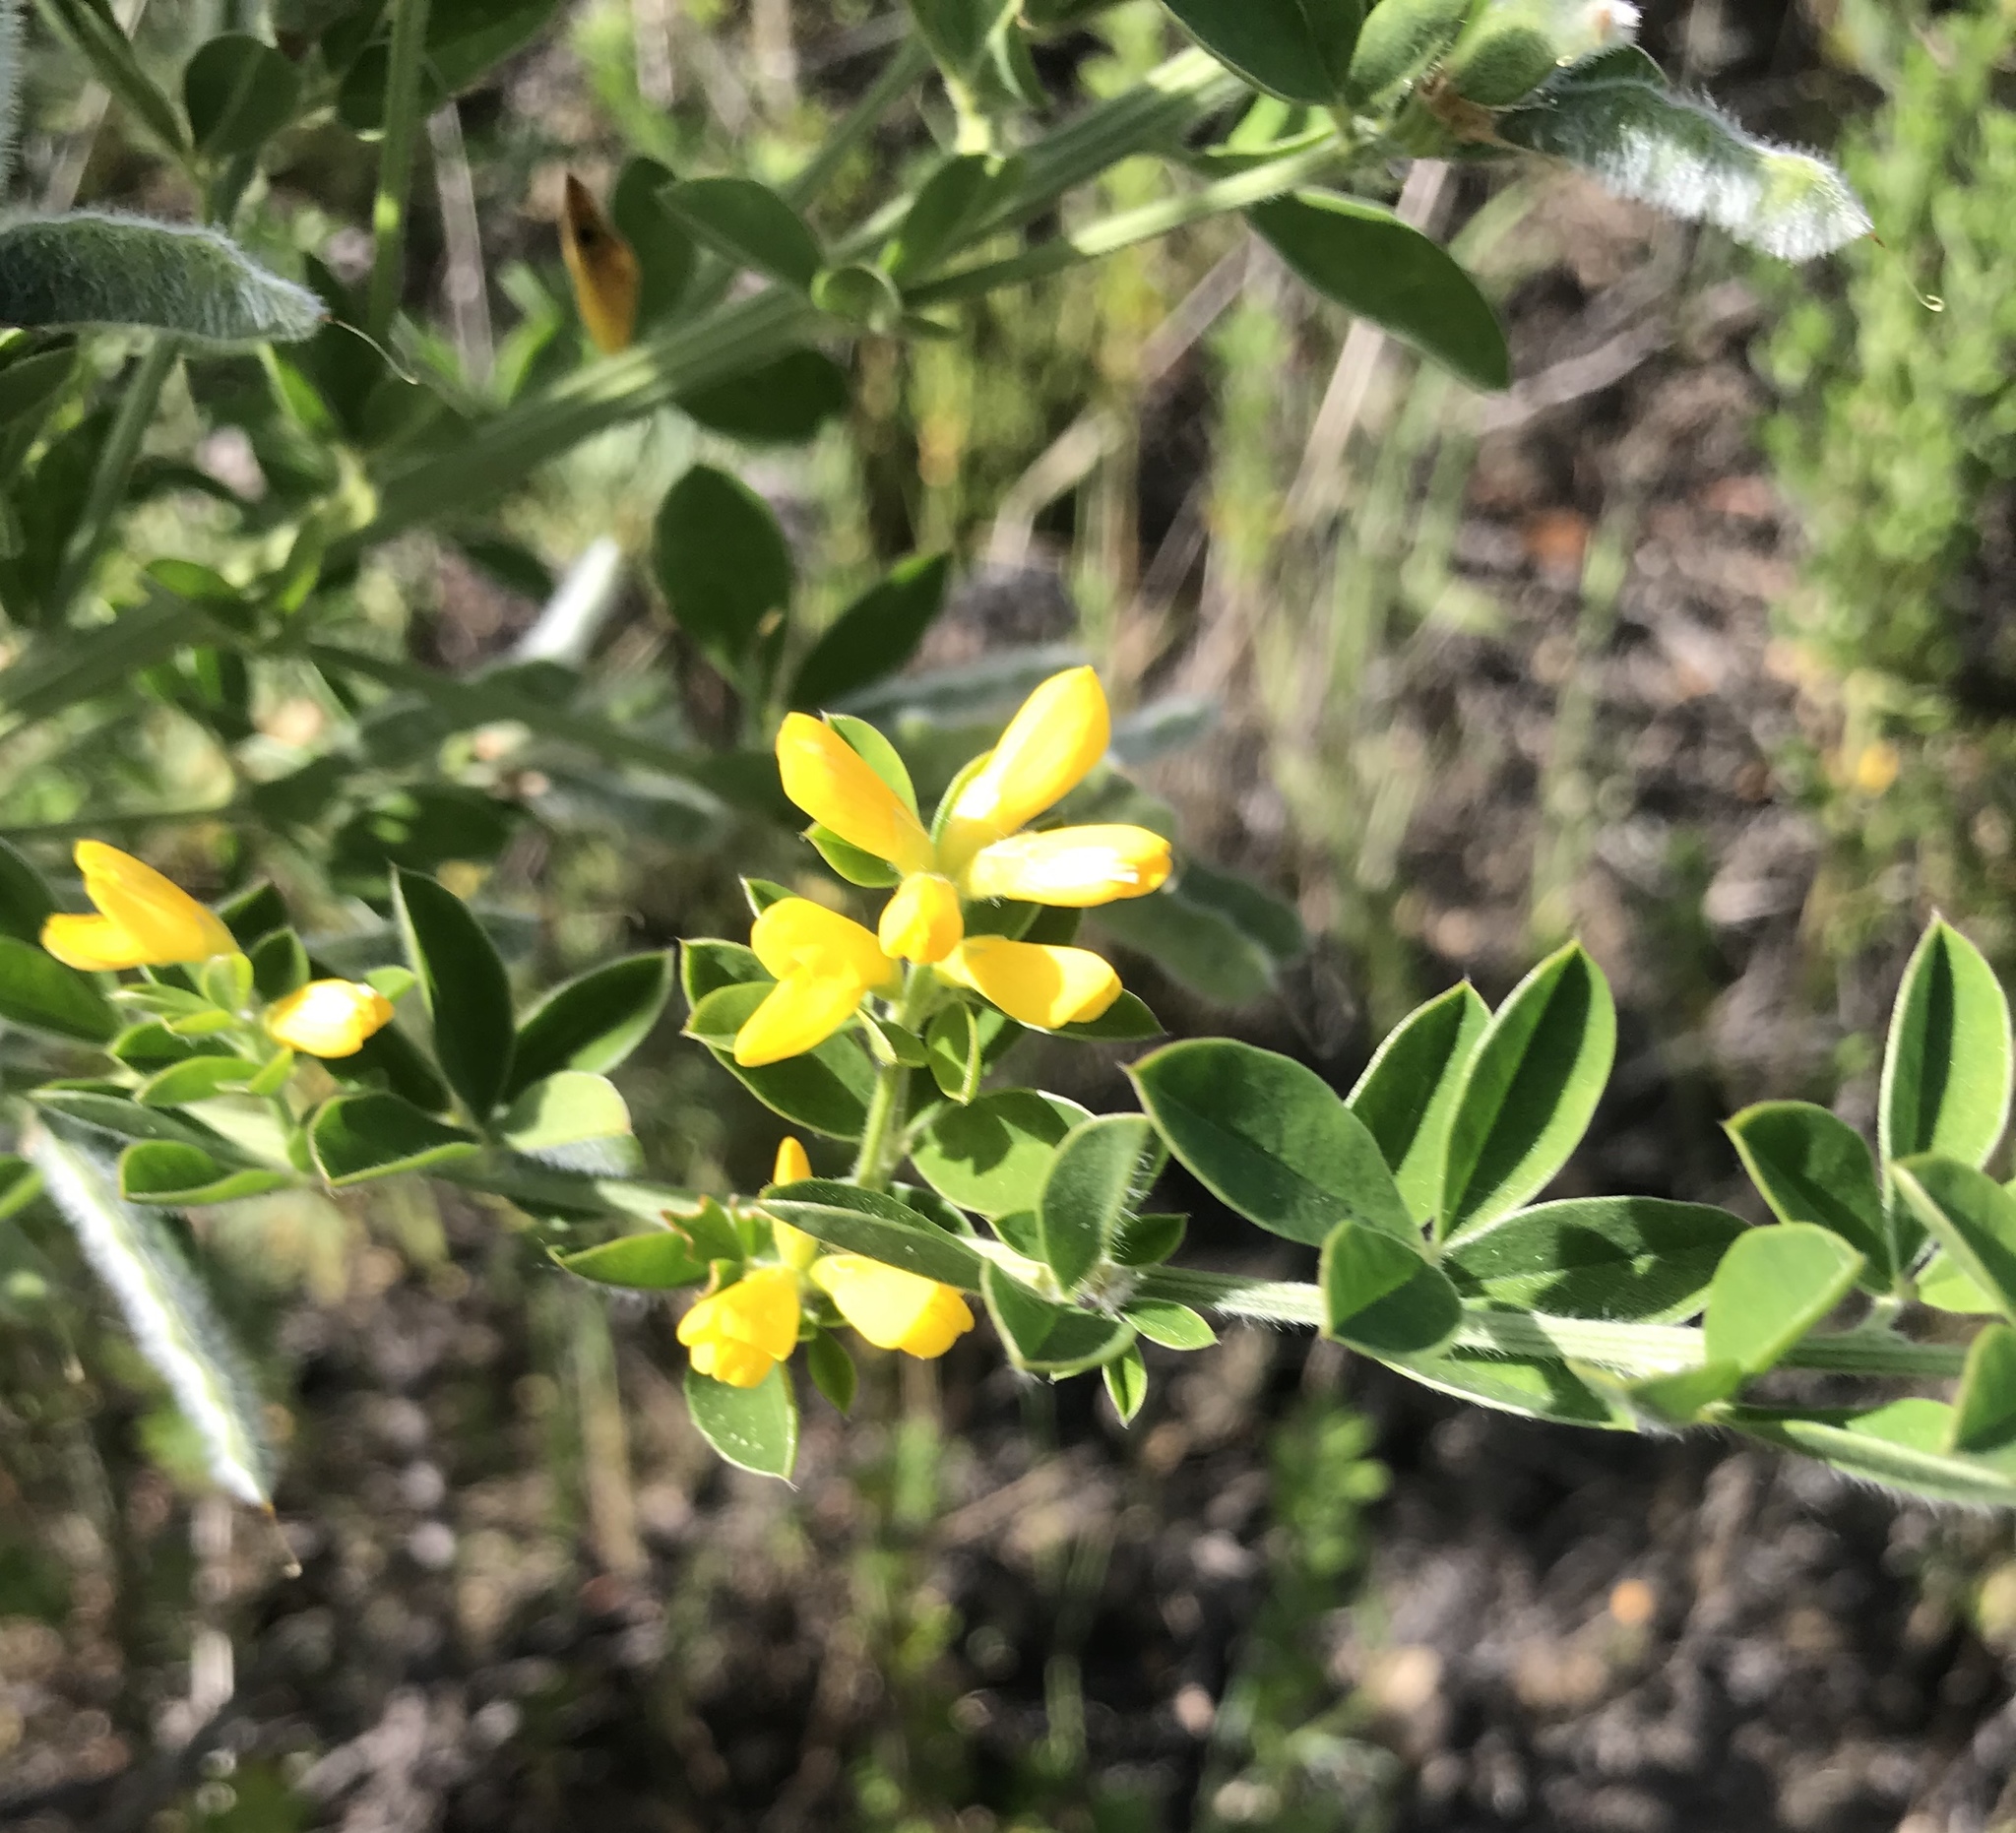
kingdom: Plantae
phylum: Tracheophyta
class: Magnoliopsida
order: Fabales
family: Fabaceae
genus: Genista
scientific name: Genista monspessulana
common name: Montpellier broom
